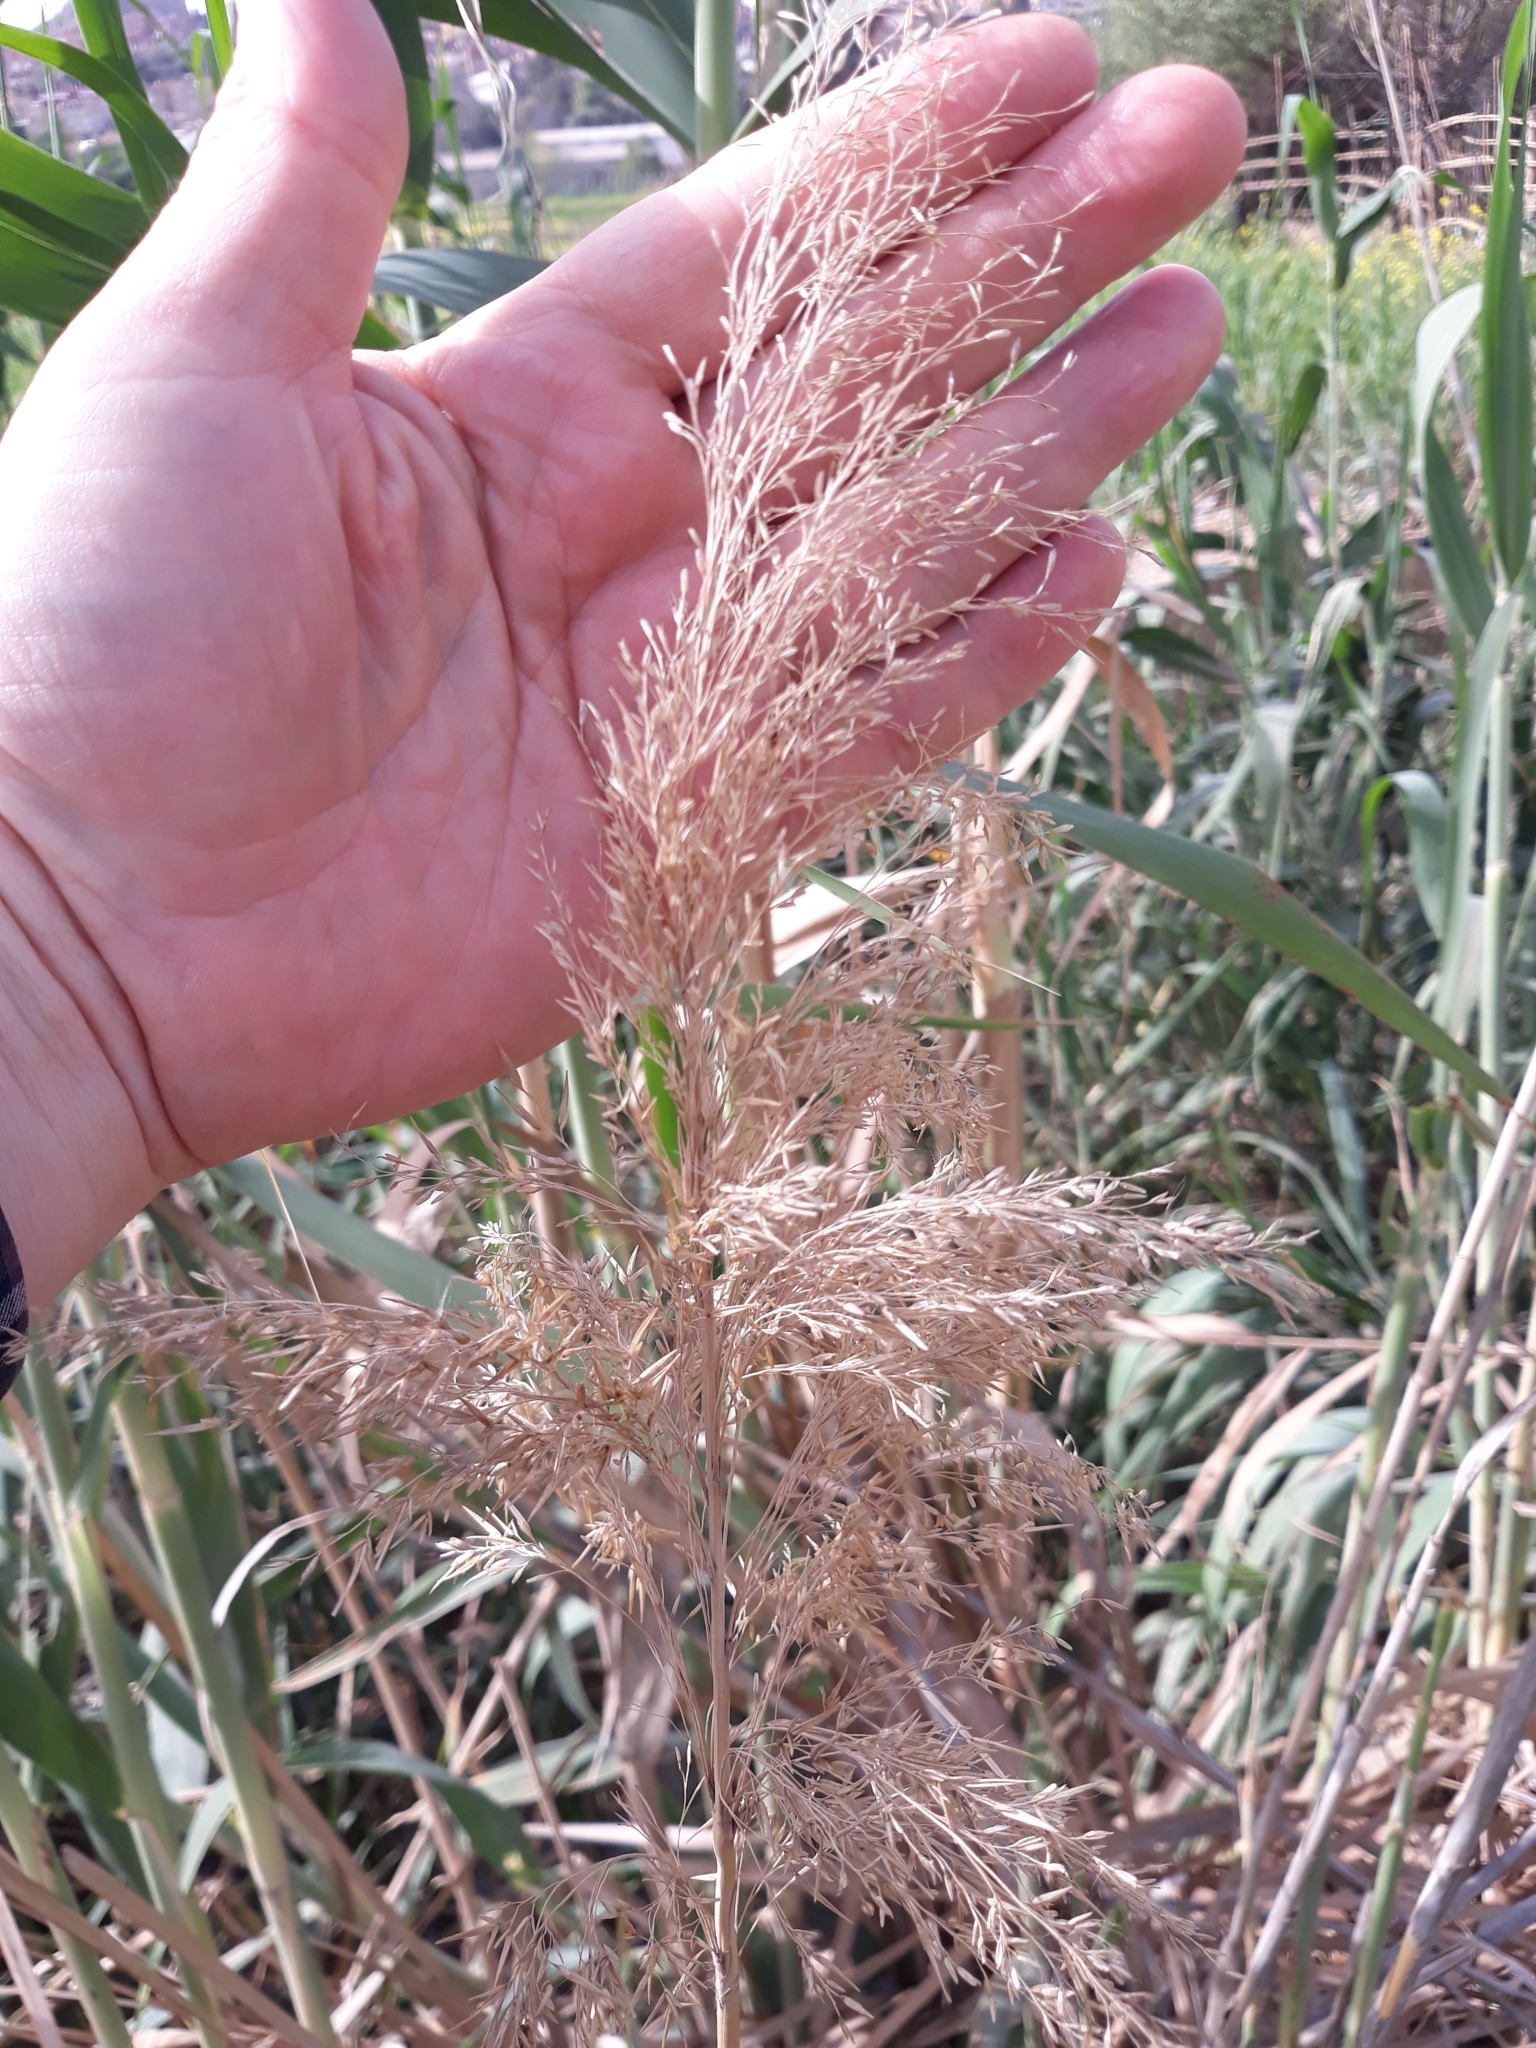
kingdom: Plantae
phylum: Tracheophyta
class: Liliopsida
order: Poales
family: Poaceae
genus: Phragmites
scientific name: Phragmites australis
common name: Common reed
